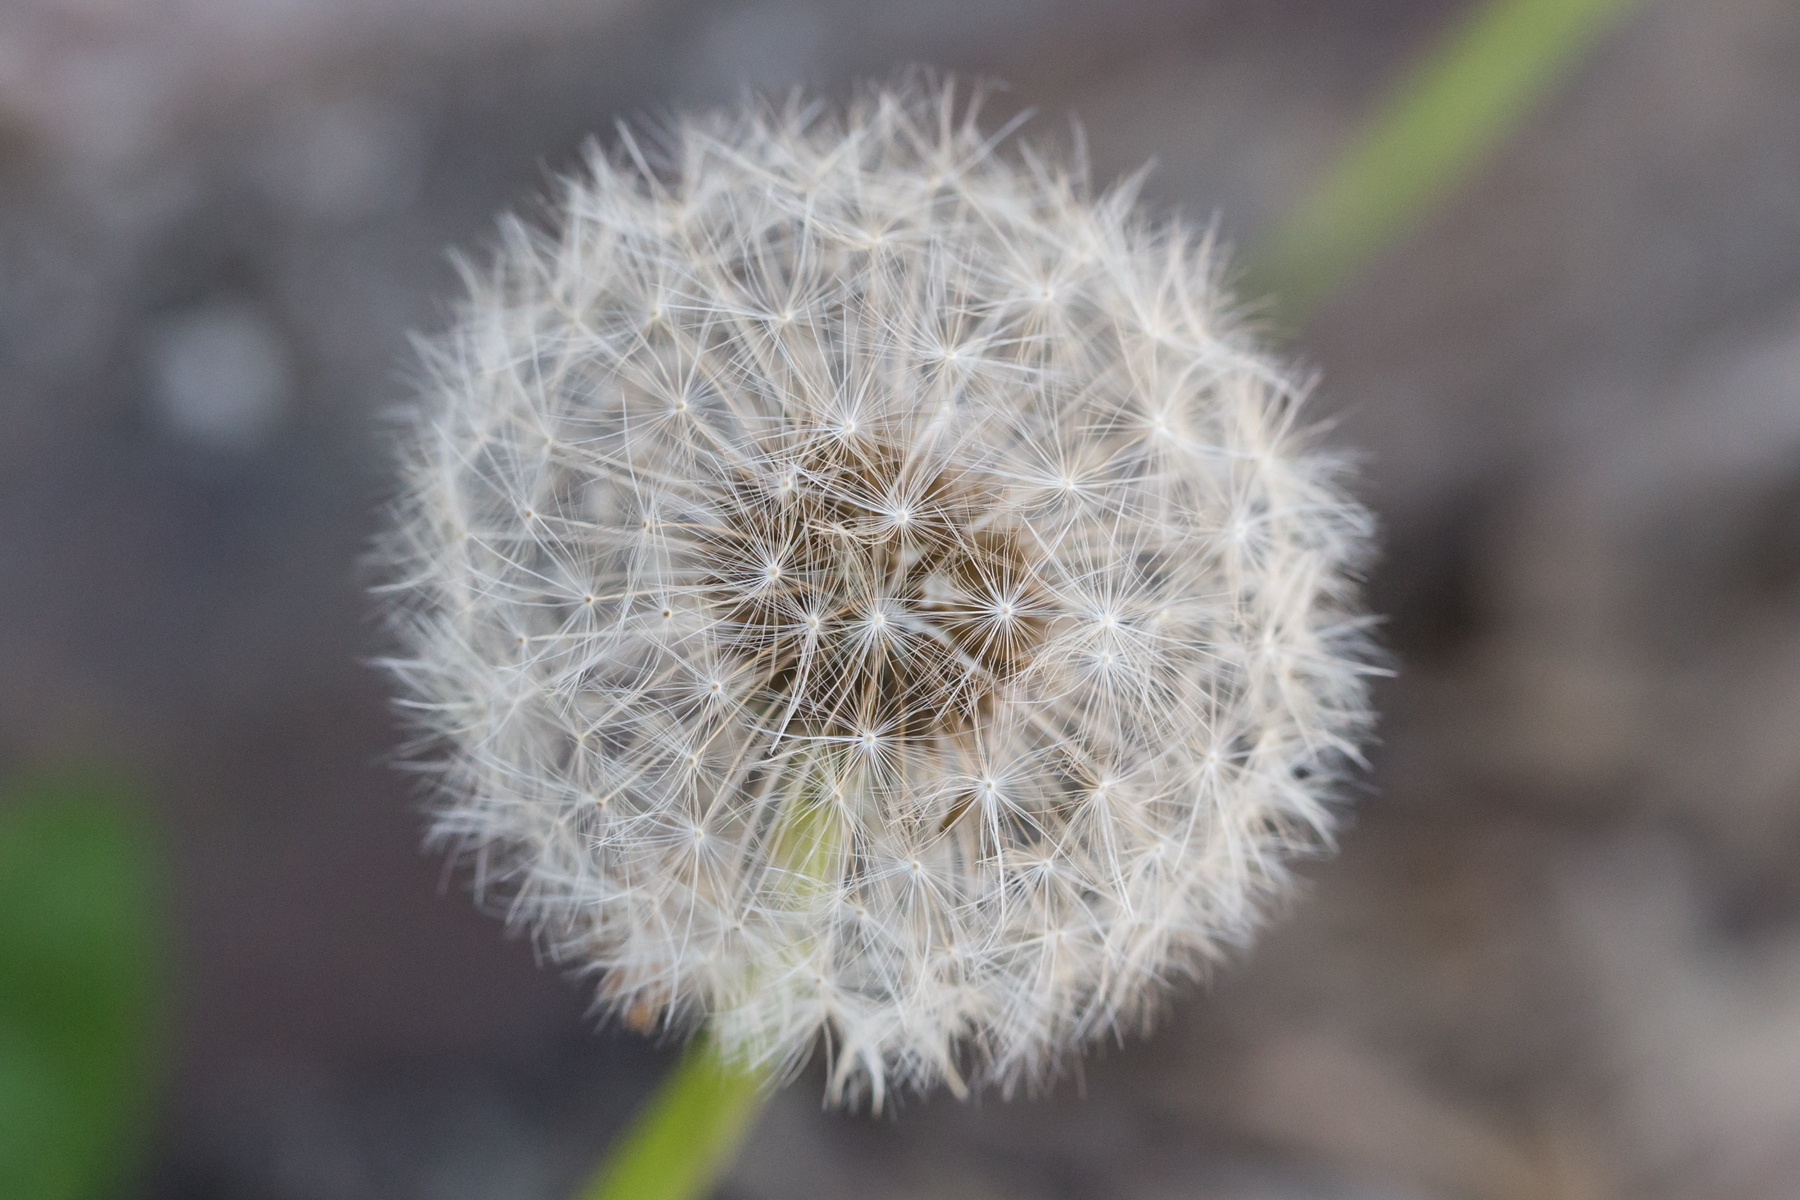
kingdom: Plantae
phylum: Tracheophyta
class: Magnoliopsida
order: Asterales
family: Asteraceae
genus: Taraxacum
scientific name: Taraxacum officinale
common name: Common dandelion
